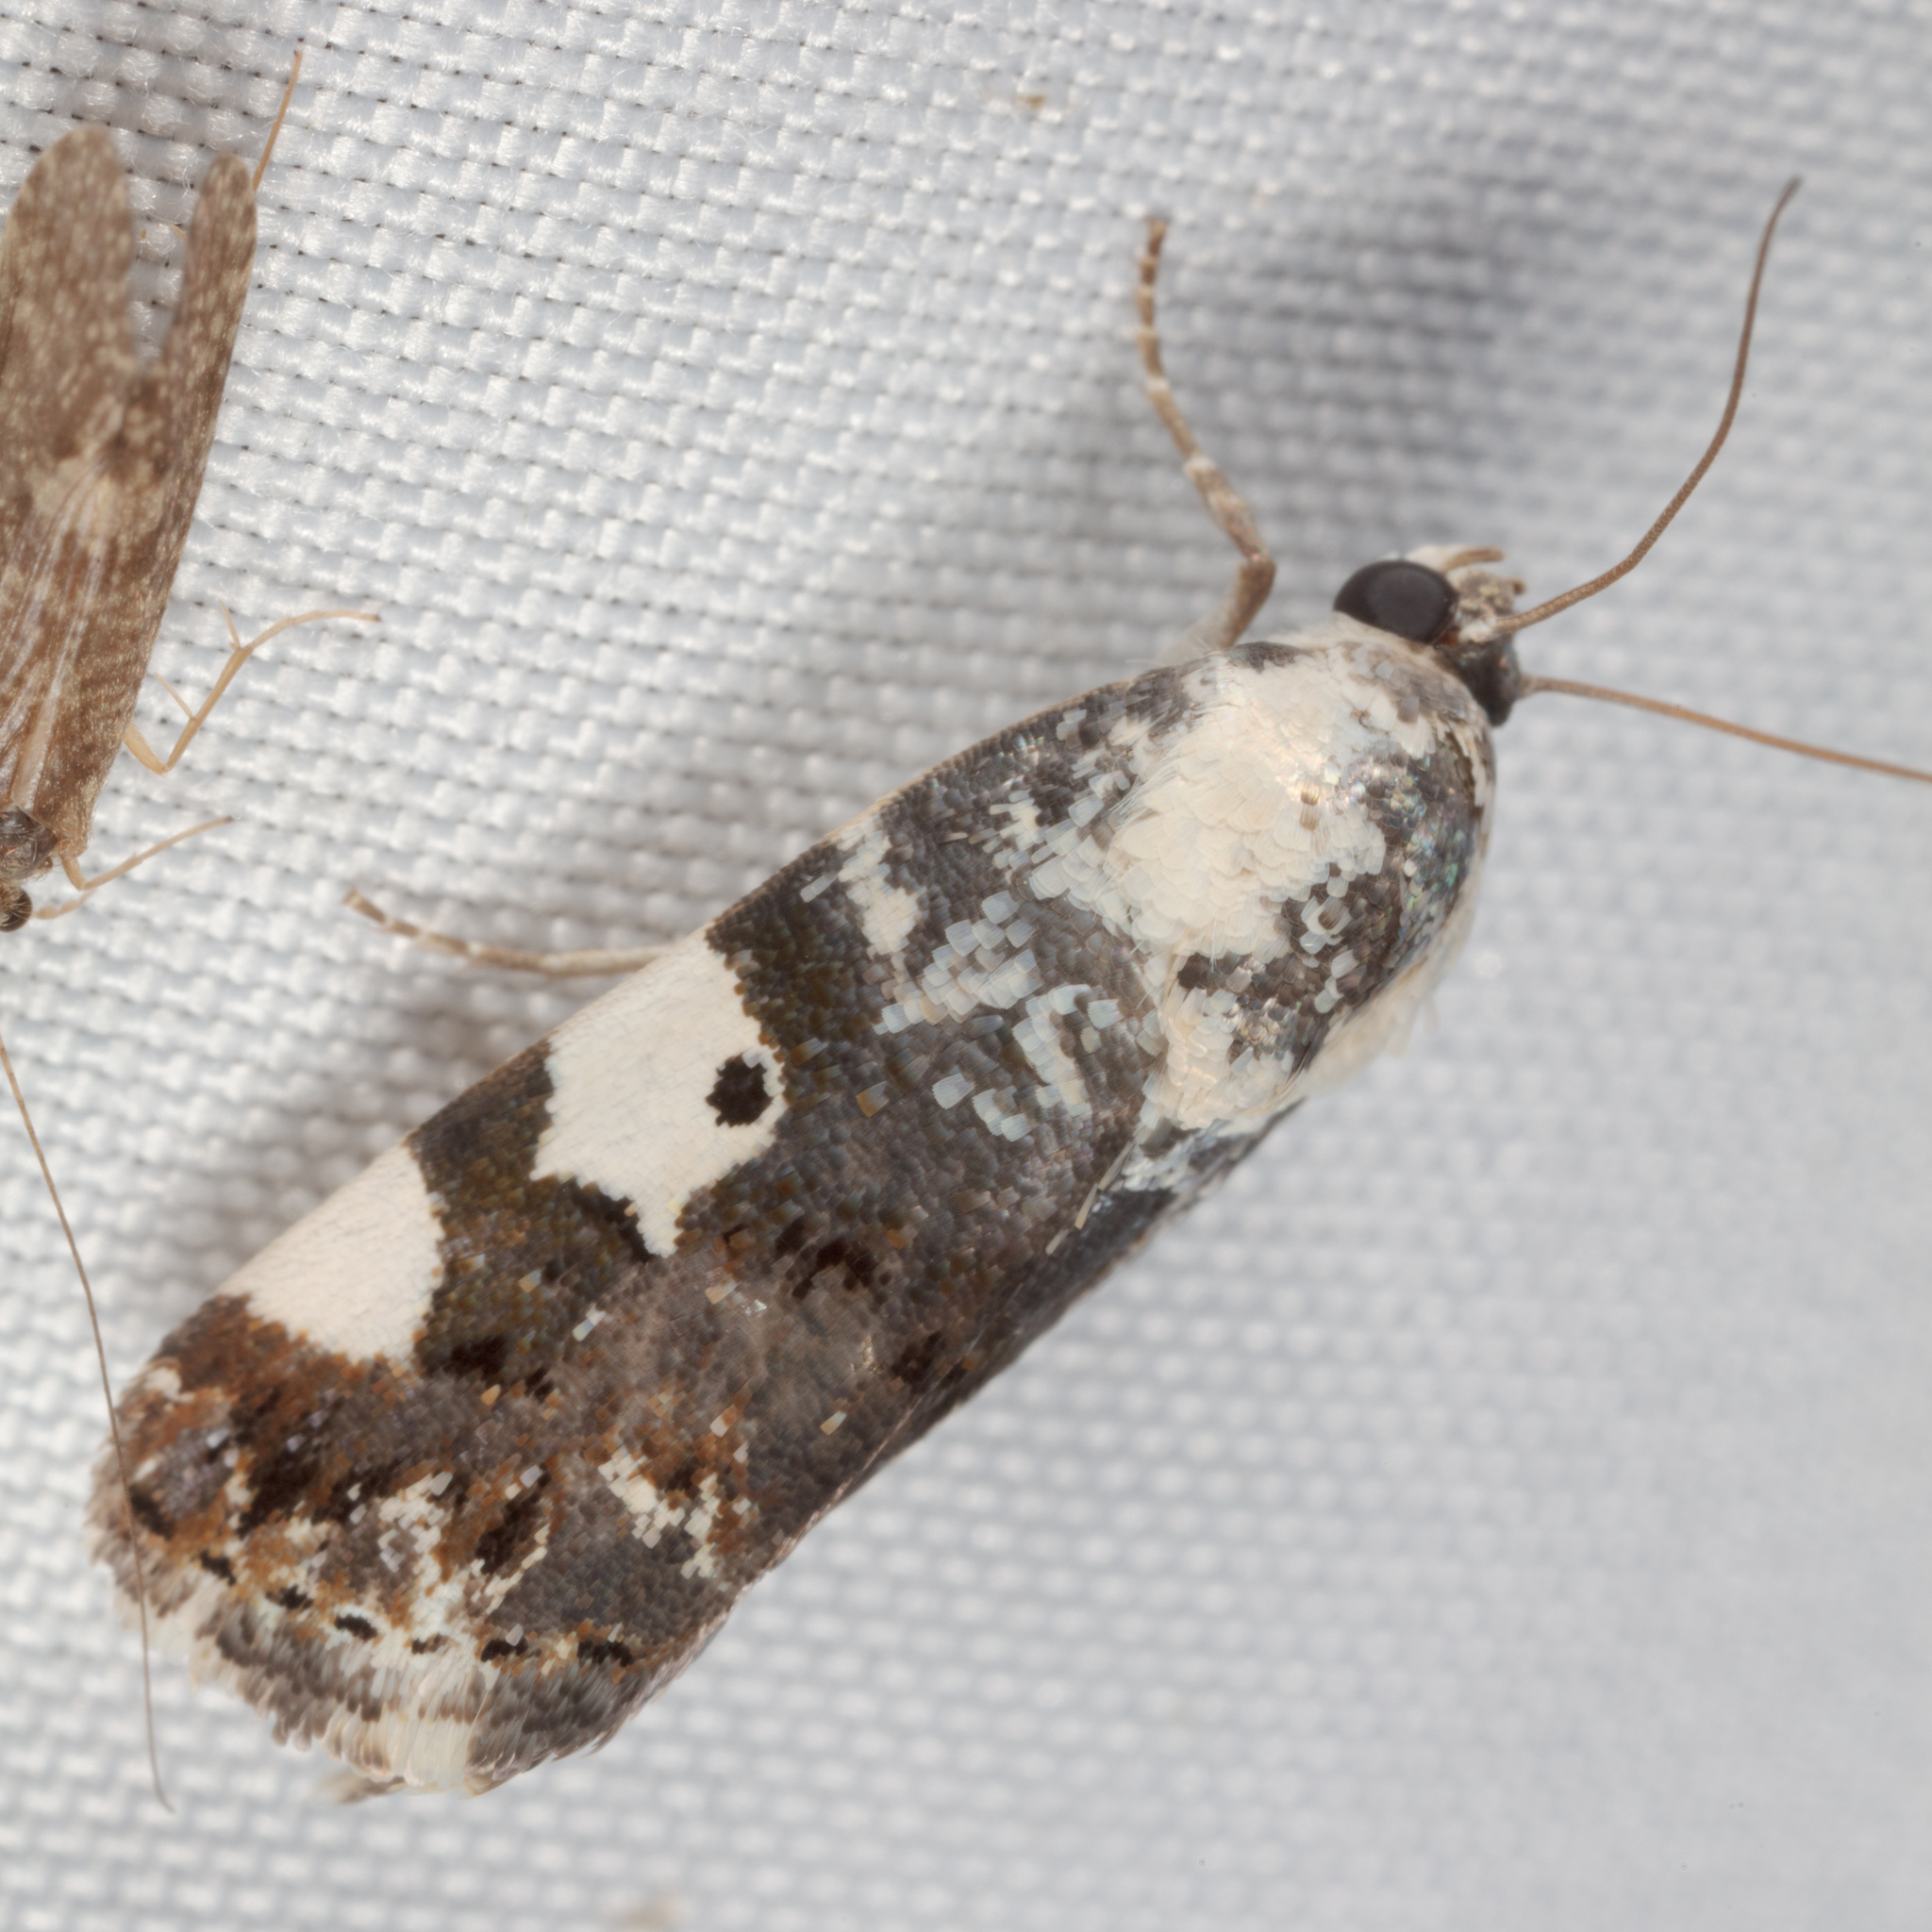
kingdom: Animalia
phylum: Arthropoda
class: Insecta
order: Lepidoptera
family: Noctuidae
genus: Acontia
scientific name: Acontia aprica
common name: Nun
